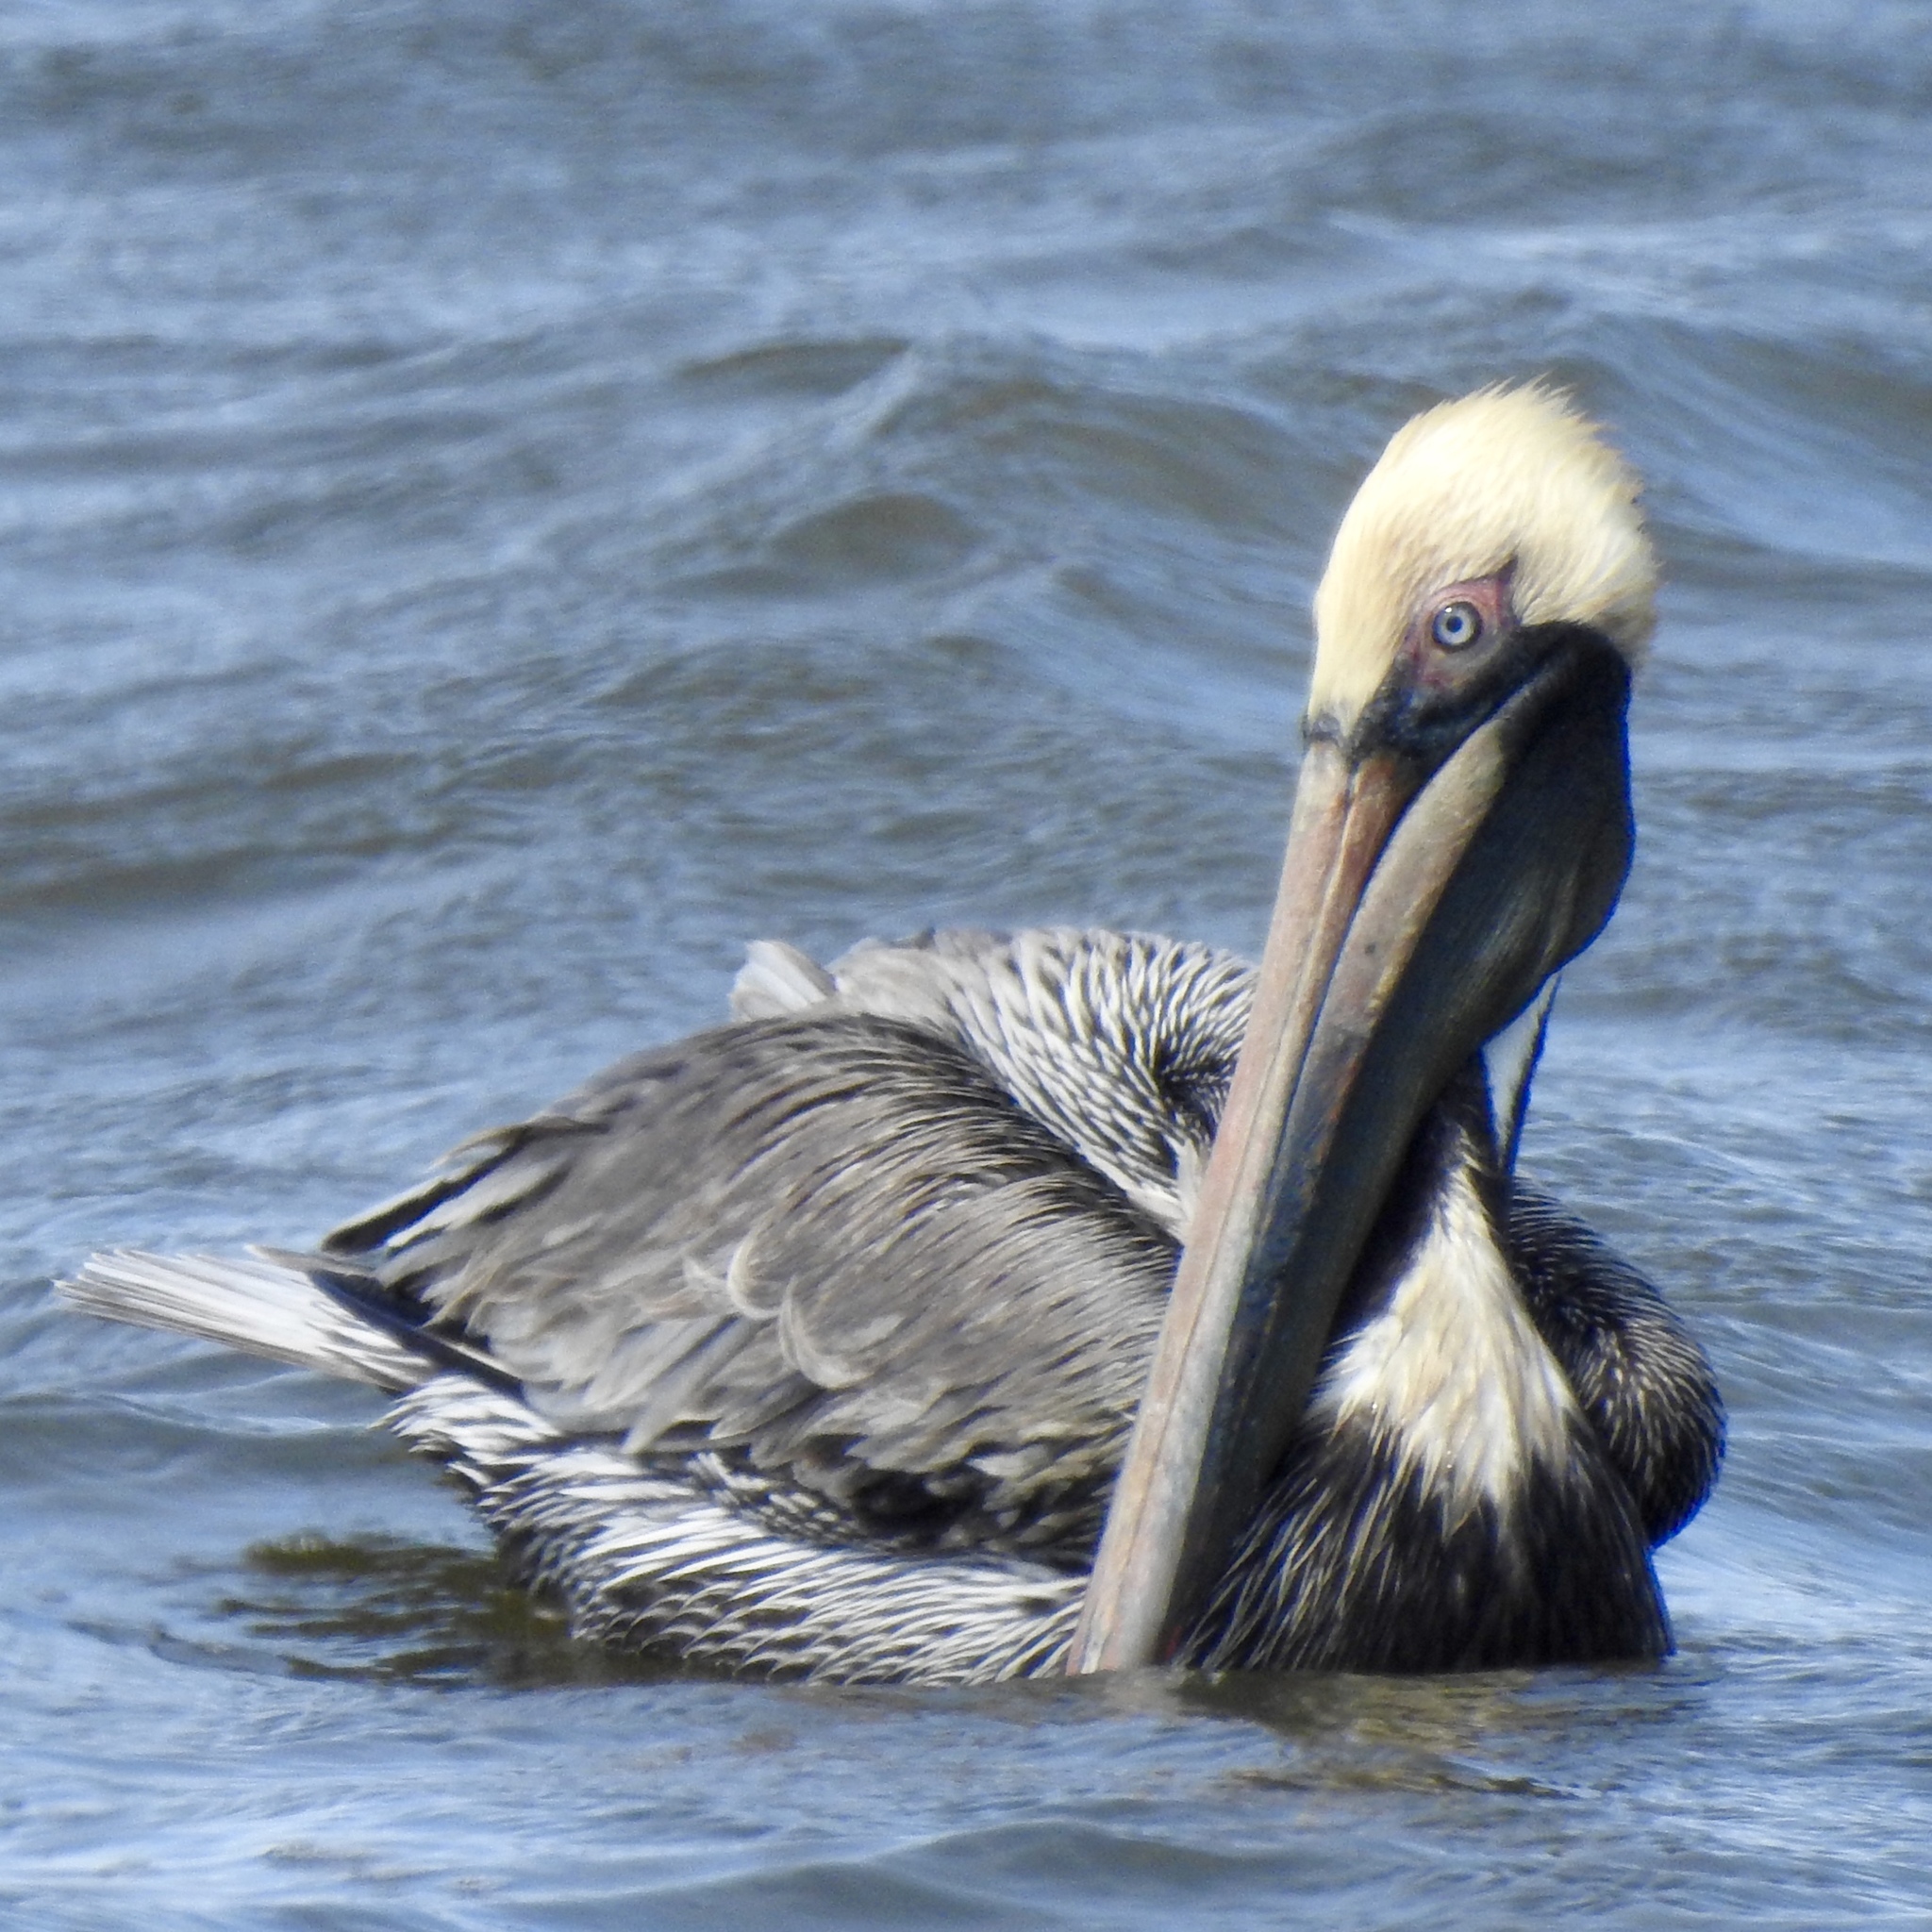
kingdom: Animalia
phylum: Chordata
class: Aves
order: Pelecaniformes
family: Pelecanidae
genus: Pelecanus
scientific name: Pelecanus occidentalis
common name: Brown pelican
